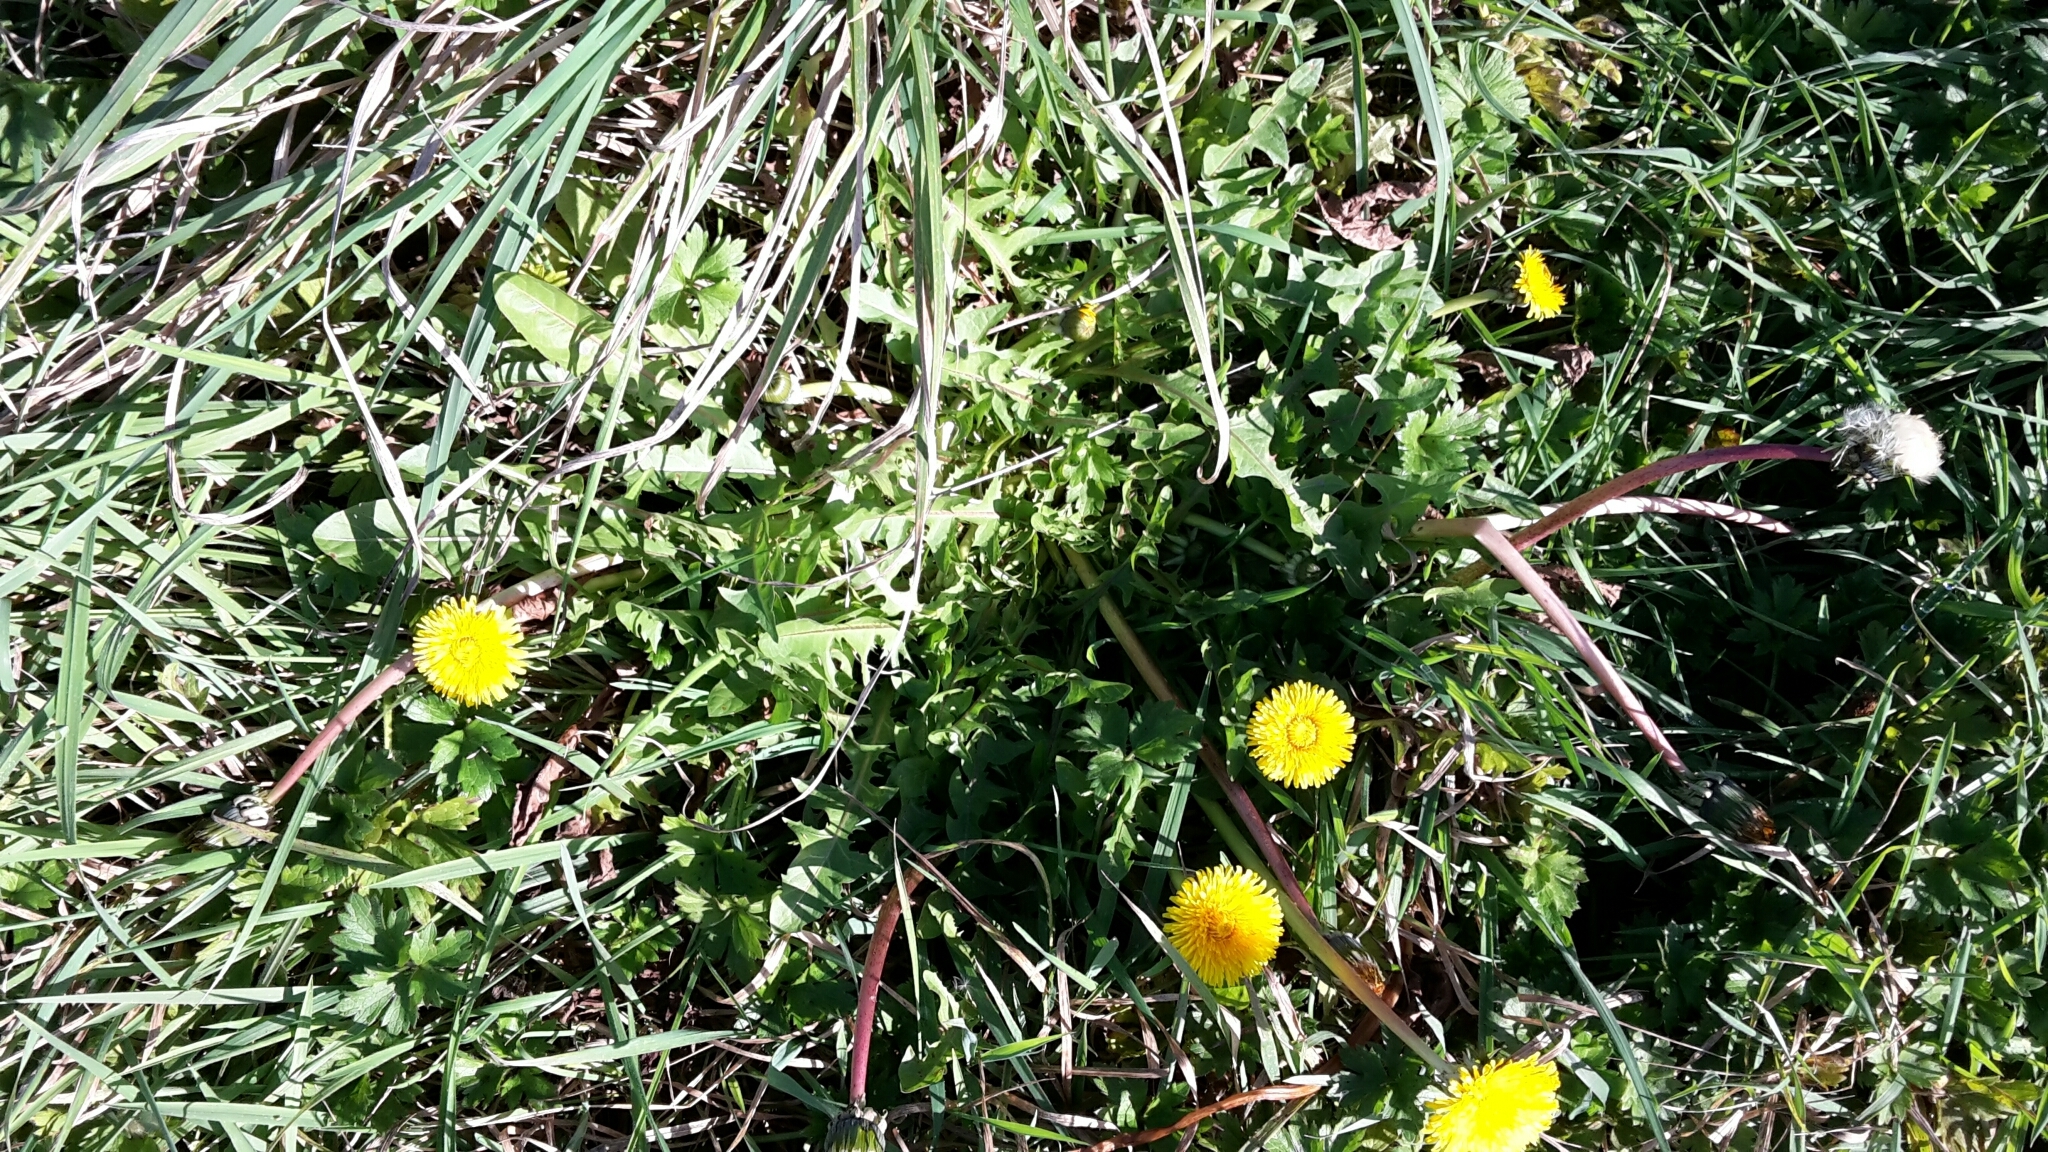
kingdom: Plantae
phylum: Tracheophyta
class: Magnoliopsida
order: Asterales
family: Asteraceae
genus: Taraxacum
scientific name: Taraxacum officinale
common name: Common dandelion
